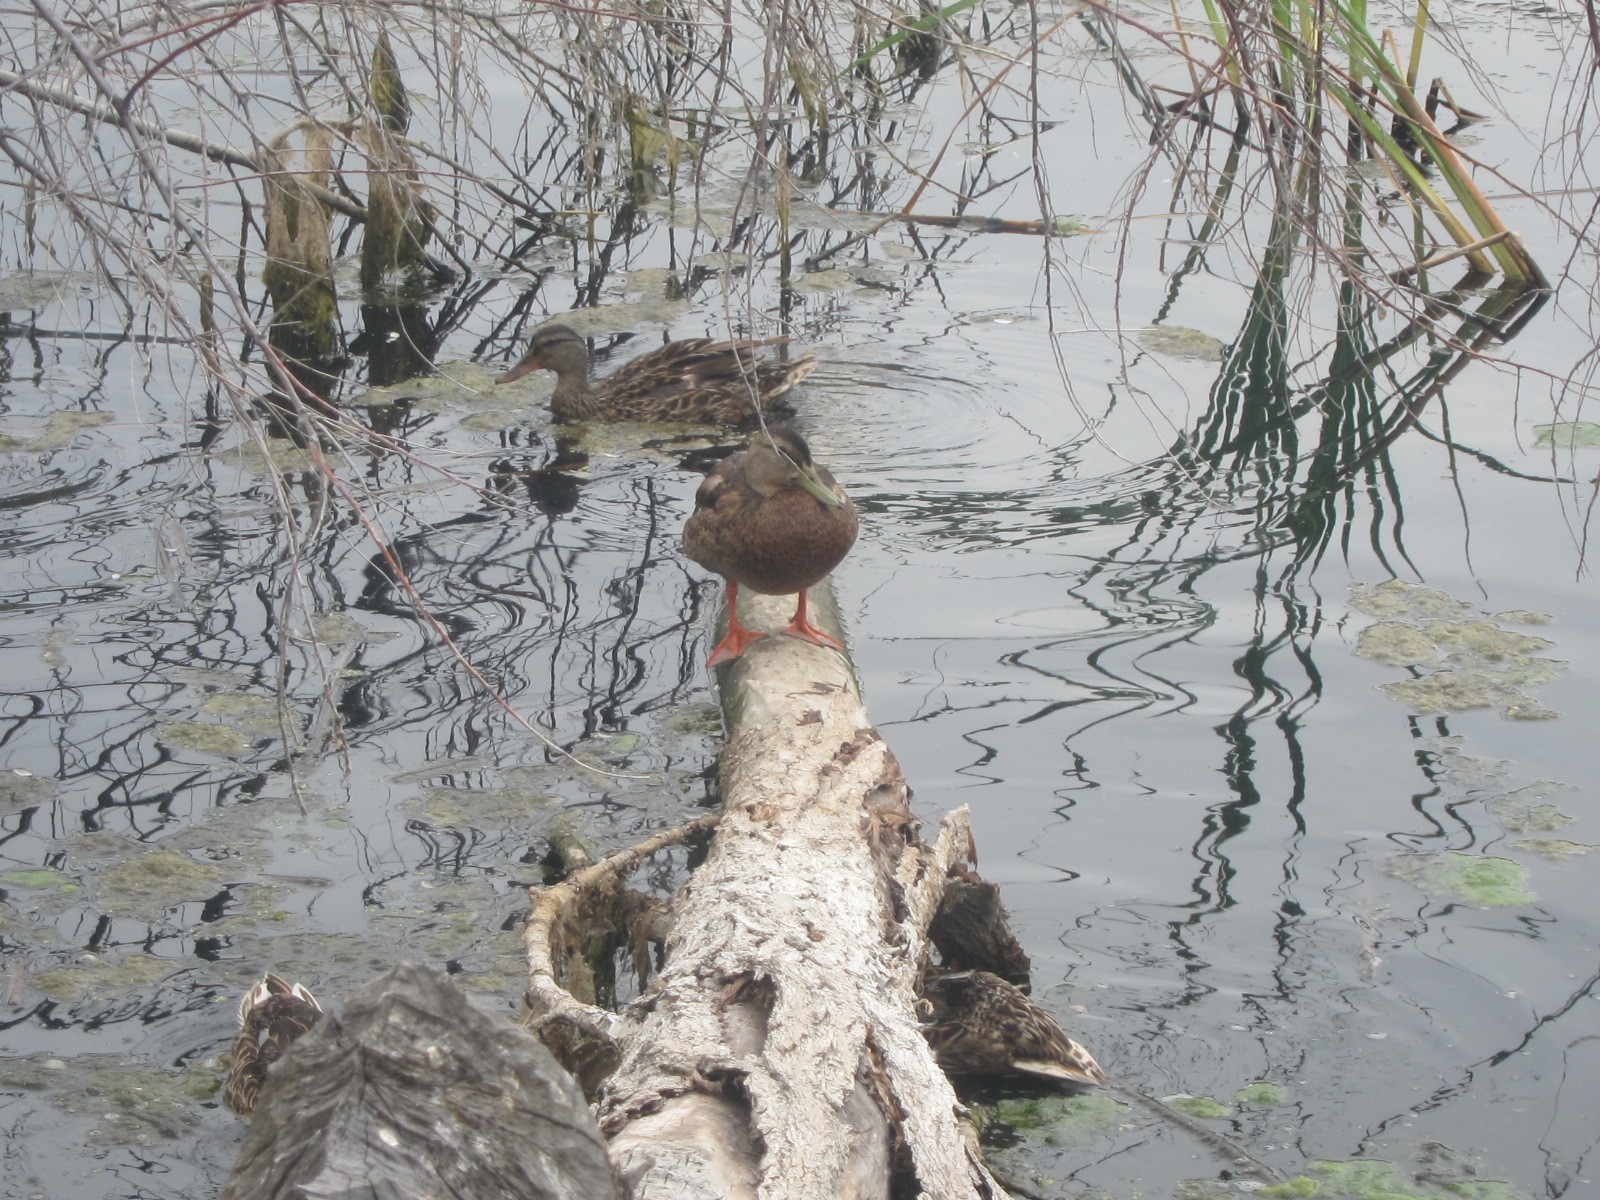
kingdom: Animalia
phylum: Chordata
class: Aves
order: Anseriformes
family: Anatidae
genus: Anas
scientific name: Anas platyrhynchos
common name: Mallard
